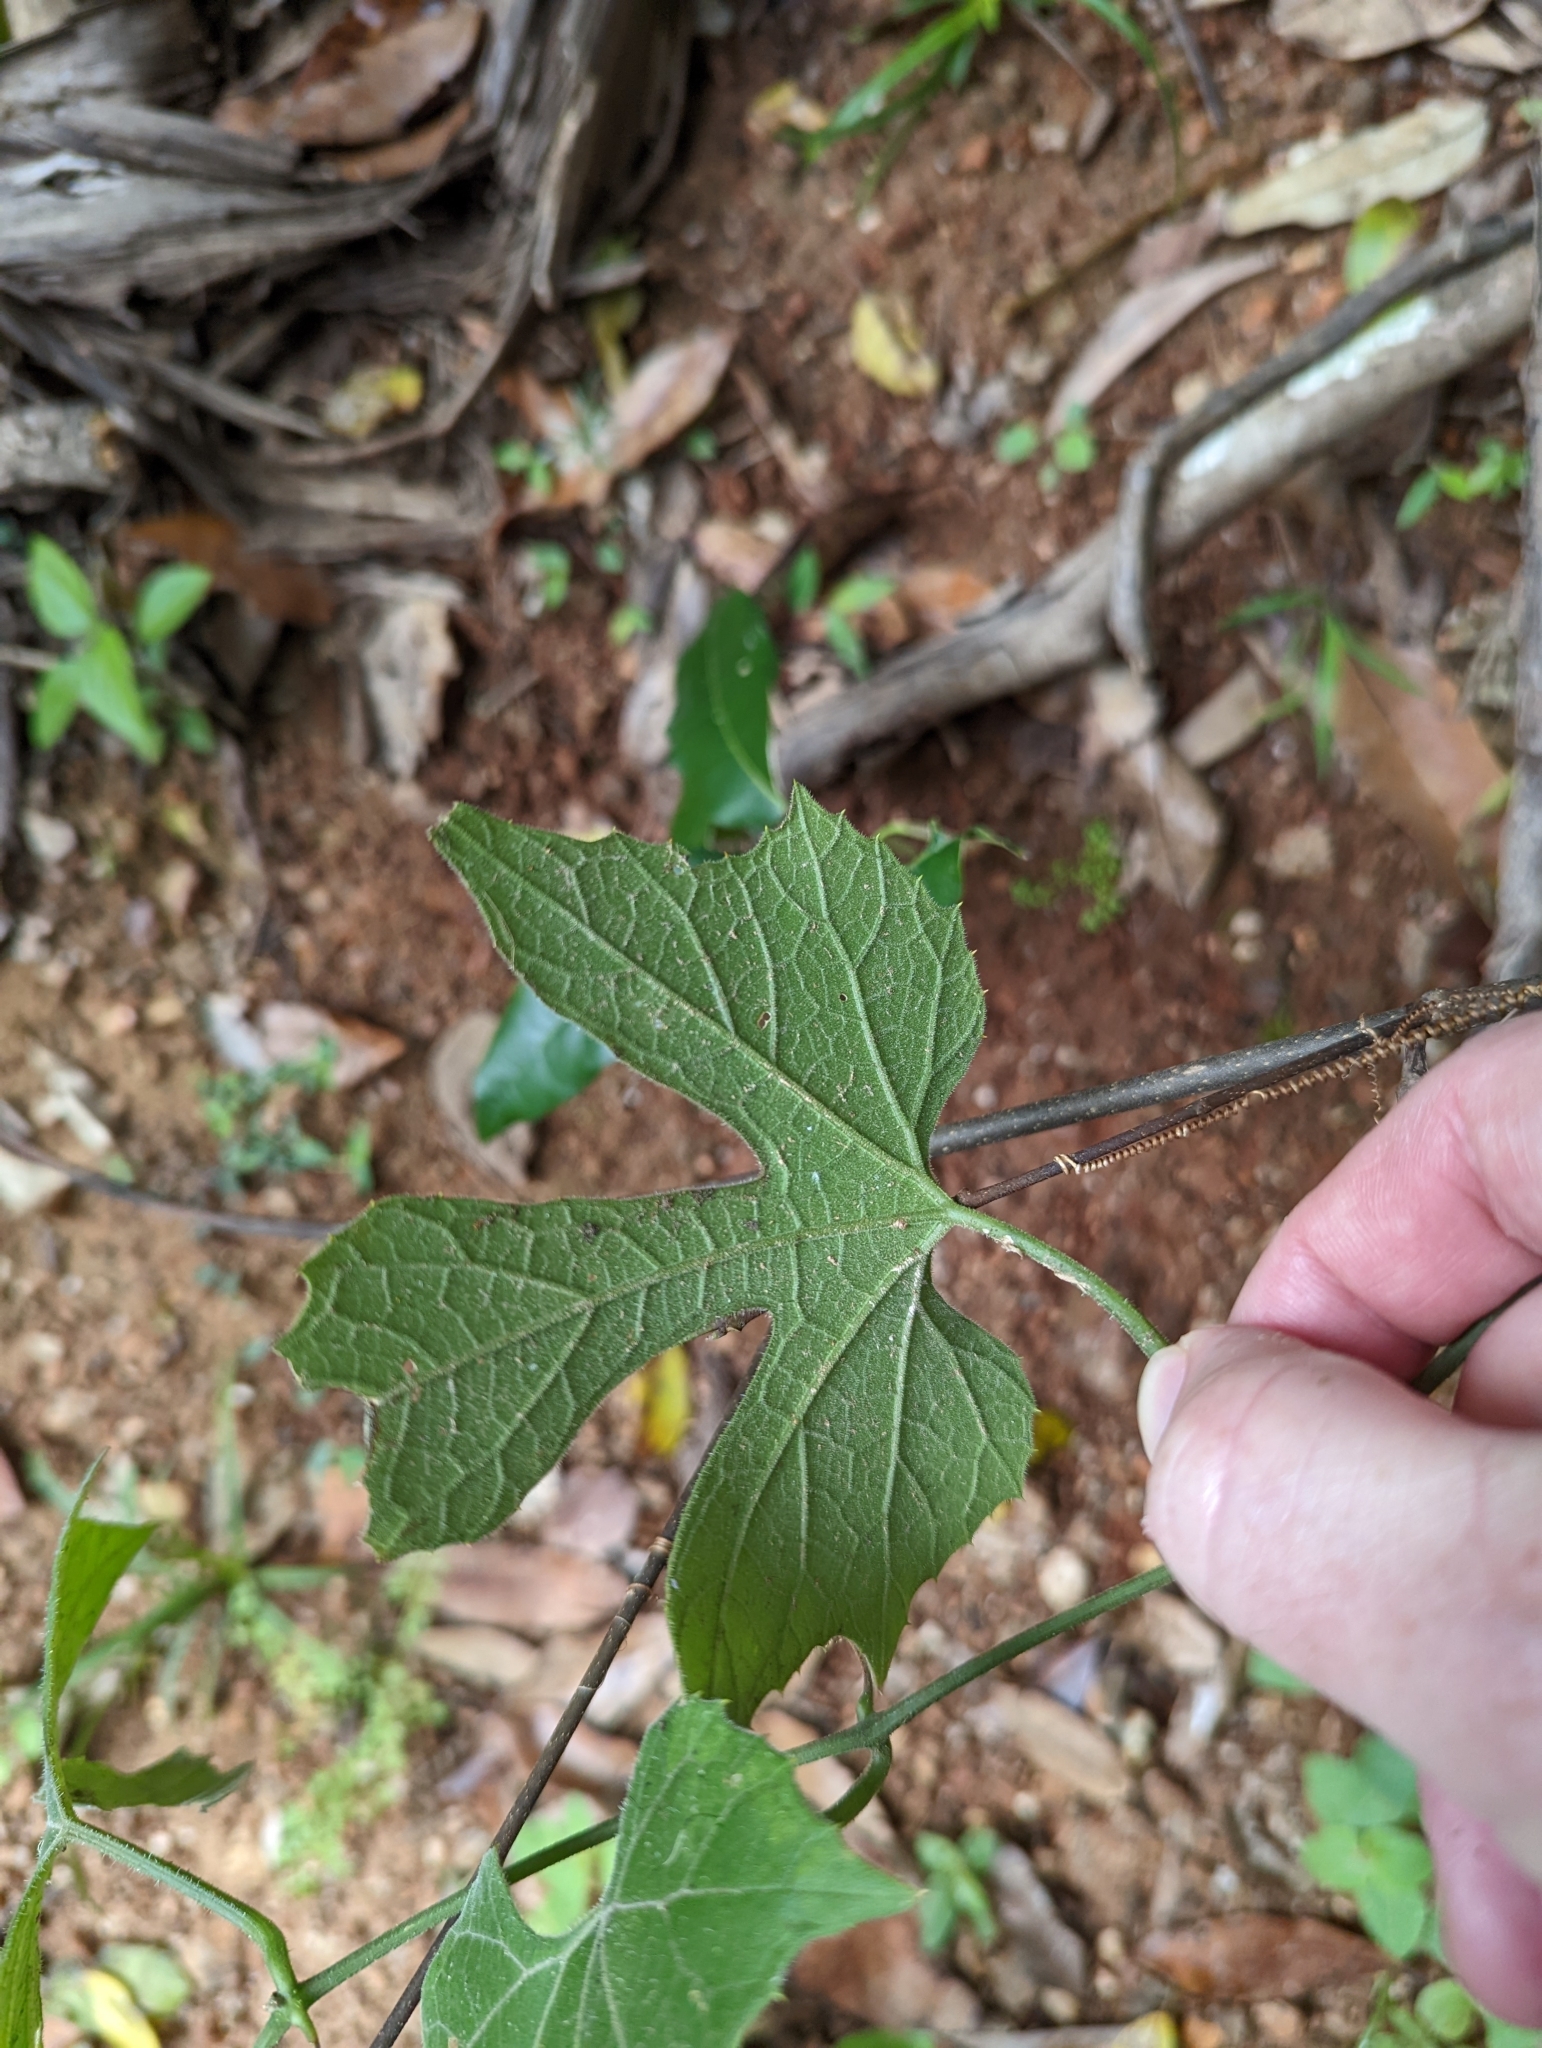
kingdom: Plantae
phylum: Tracheophyta
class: Magnoliopsida
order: Cucurbitales
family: Cucurbitaceae
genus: Diplocyclos
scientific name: Diplocyclos palmatus
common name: Striped-cucumber
